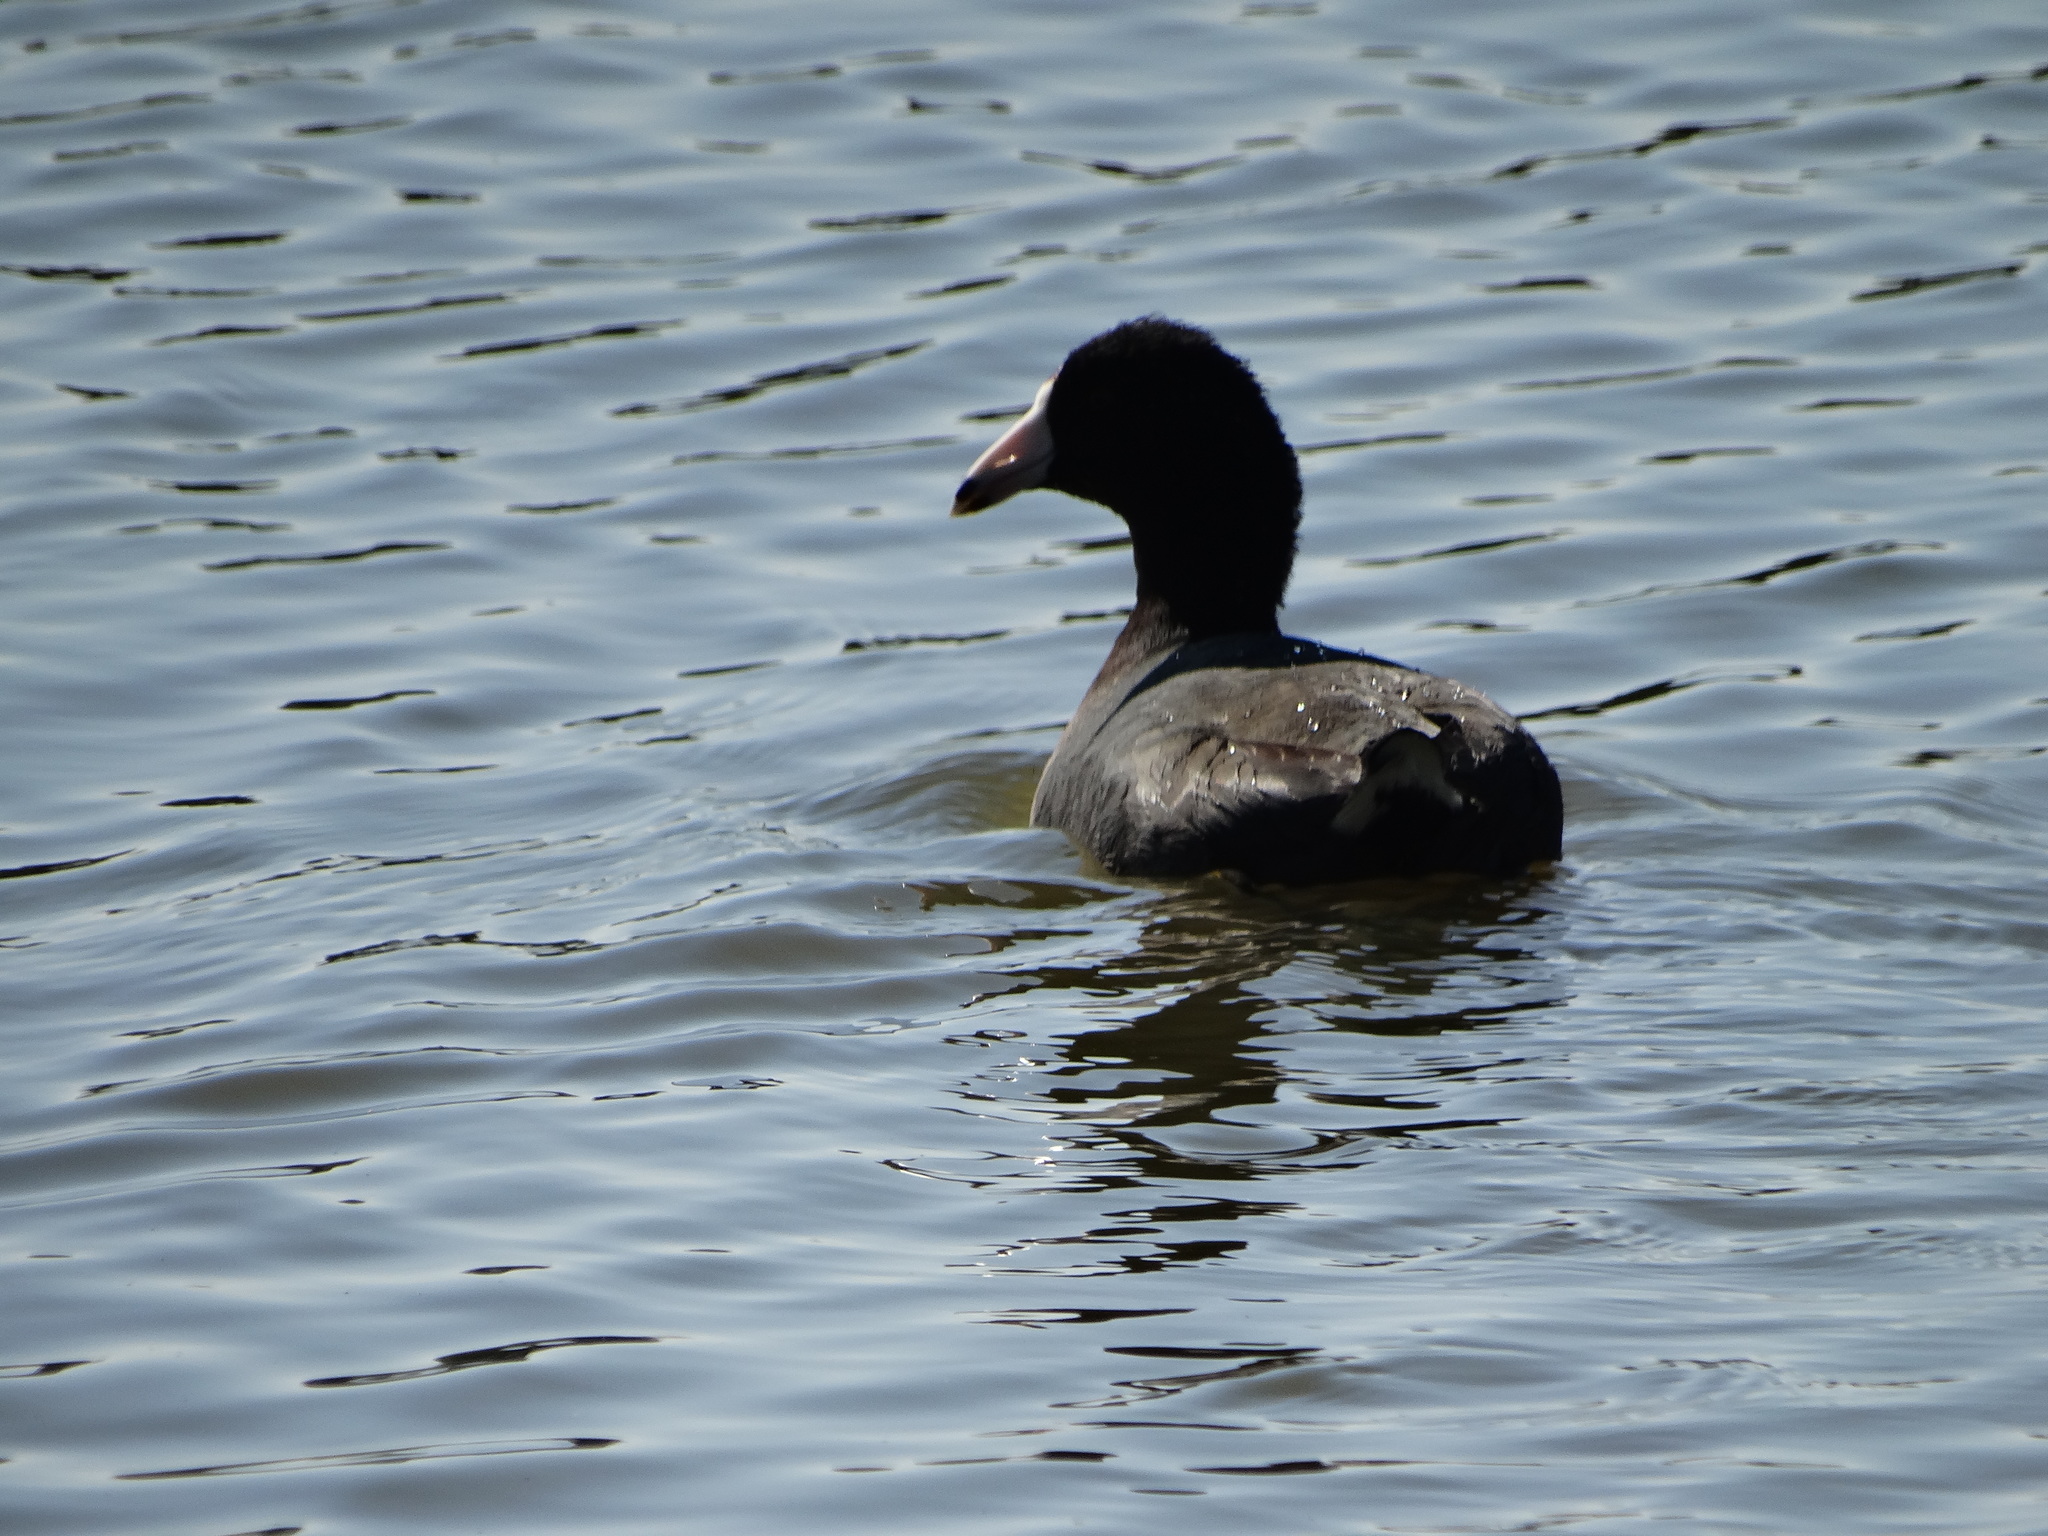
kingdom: Animalia
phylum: Chordata
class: Aves
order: Gruiformes
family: Rallidae
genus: Fulica
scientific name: Fulica americana
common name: American coot
